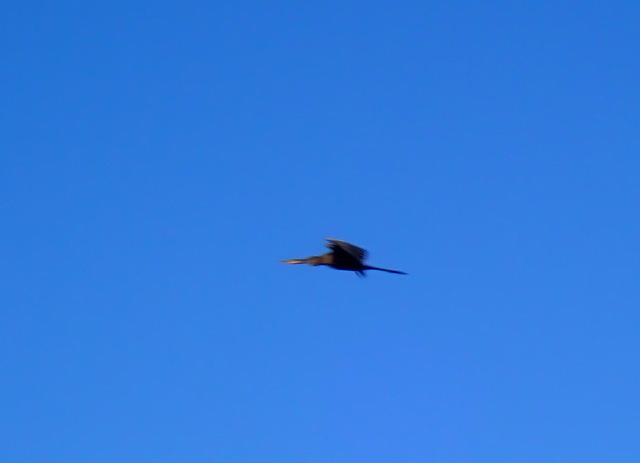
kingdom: Animalia
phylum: Chordata
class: Aves
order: Suliformes
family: Anhingidae
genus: Anhinga
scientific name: Anhinga anhinga
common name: Anhinga
